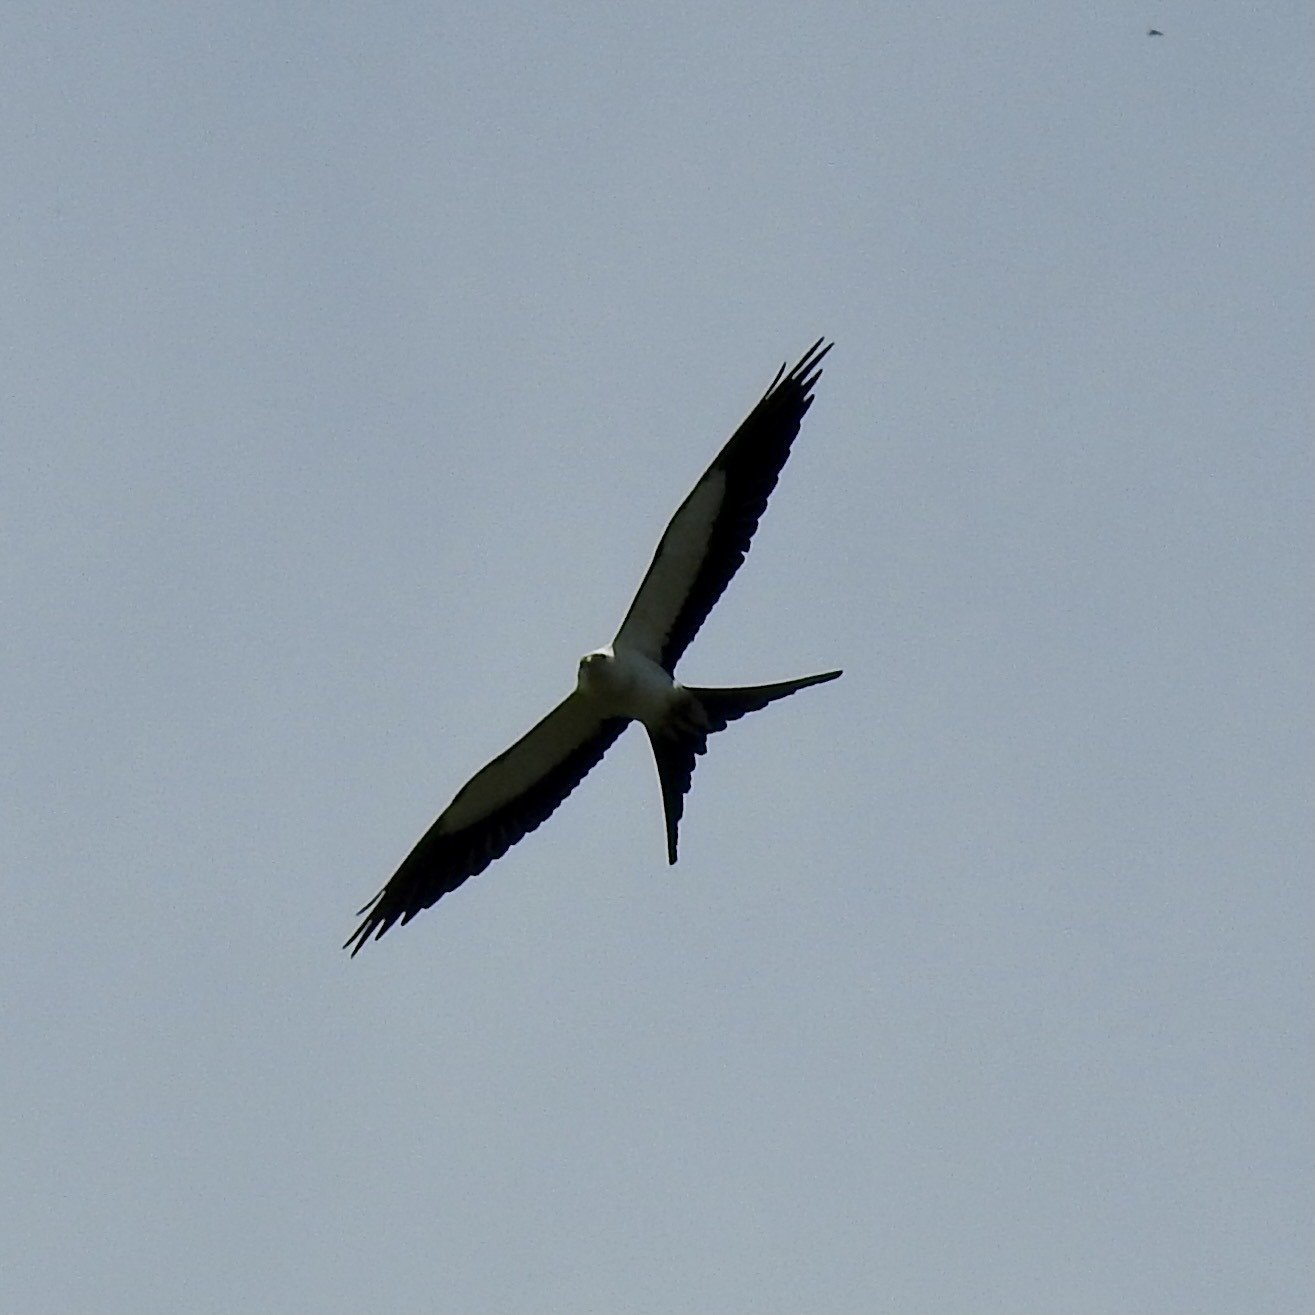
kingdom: Animalia
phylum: Chordata
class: Aves
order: Accipitriformes
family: Accipitridae
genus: Elanoides
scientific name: Elanoides forficatus
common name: Swallow-tailed kite
